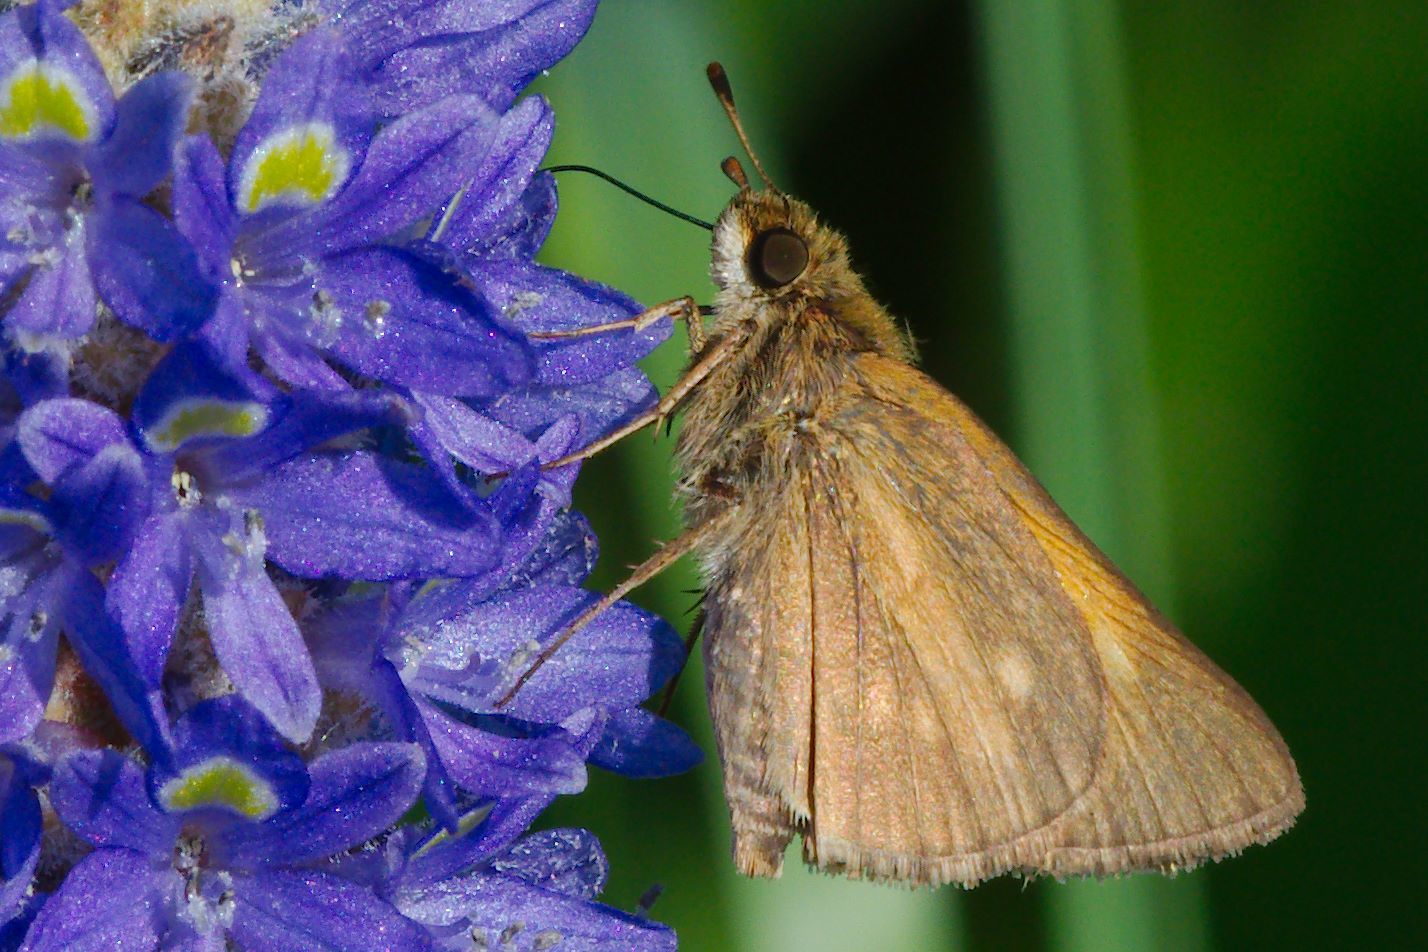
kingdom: Animalia
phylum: Arthropoda
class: Insecta
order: Lepidoptera
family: Hesperiidae
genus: Poanes
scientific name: Poanes aaroni
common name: Aaron's skipper
